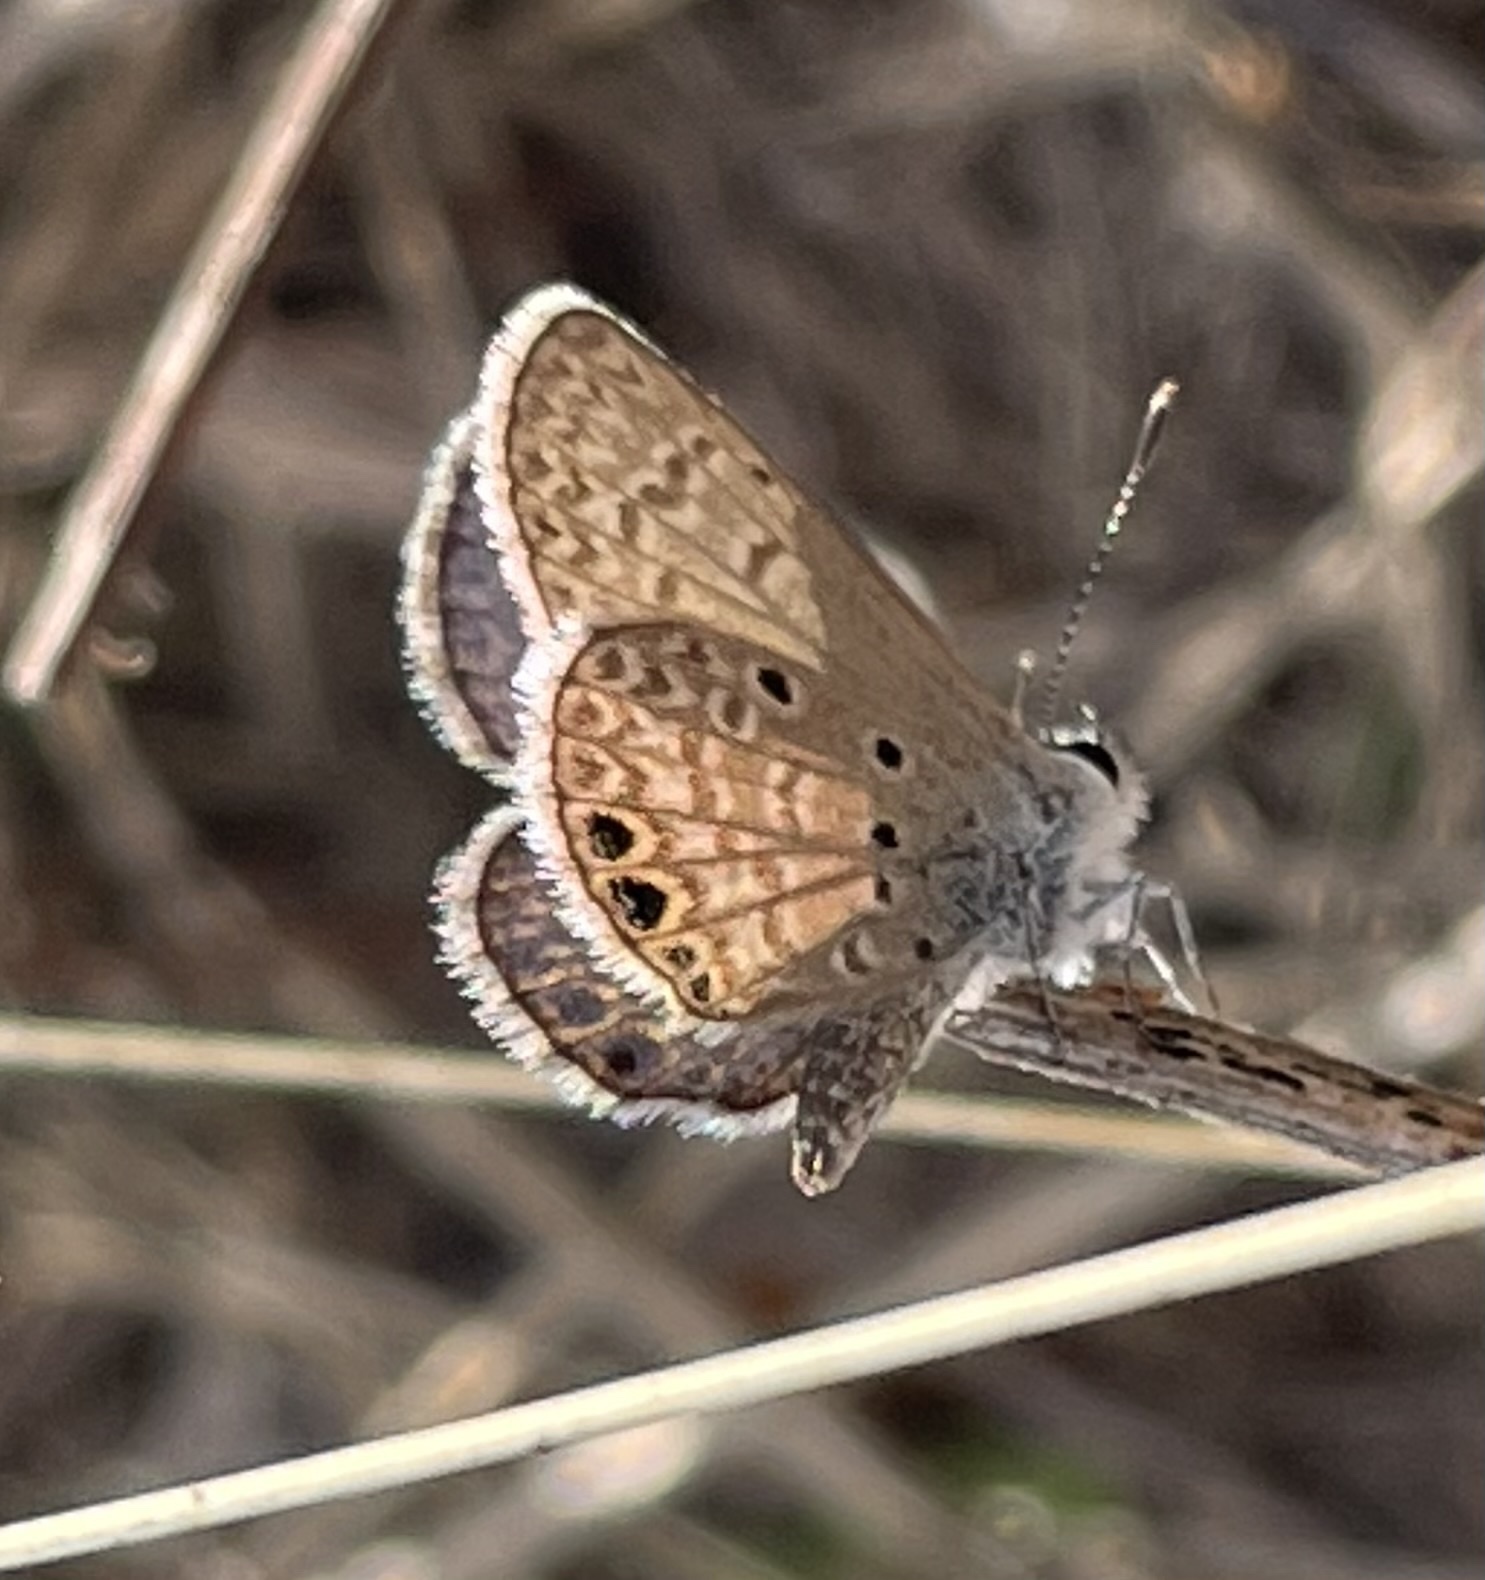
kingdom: Animalia
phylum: Arthropoda
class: Insecta
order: Lepidoptera
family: Lycaenidae
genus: Hemiargus
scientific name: Hemiargus ceraunus
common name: Ceraunus blue
